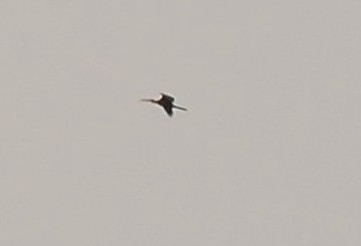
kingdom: Animalia
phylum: Chordata
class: Aves
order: Suliformes
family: Anhingidae
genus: Anhinga
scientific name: Anhinga melanogaster
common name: Oriental darter
